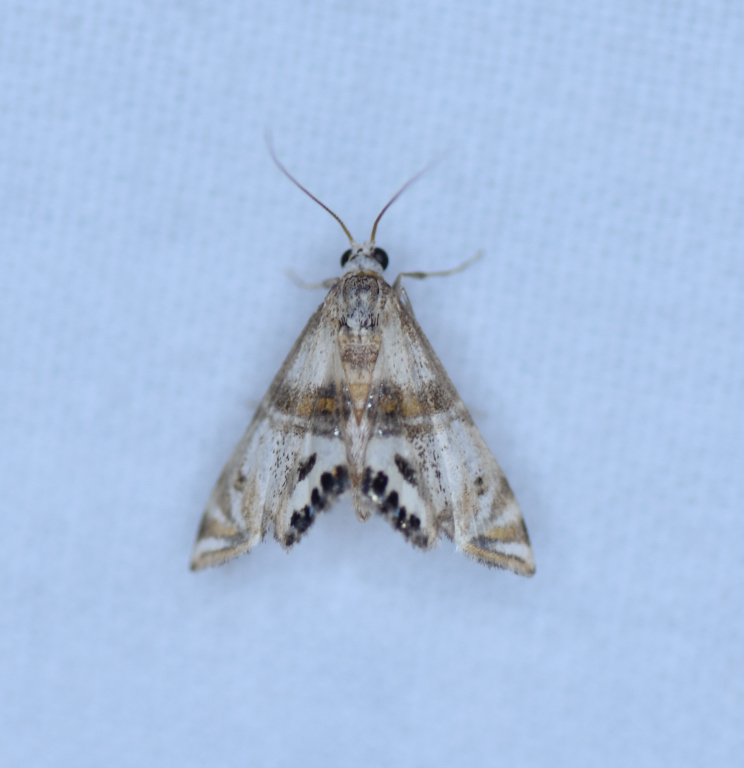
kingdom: Animalia
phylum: Arthropoda
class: Insecta
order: Lepidoptera
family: Crambidae
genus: Petrophila
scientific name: Petrophila bifascialis
